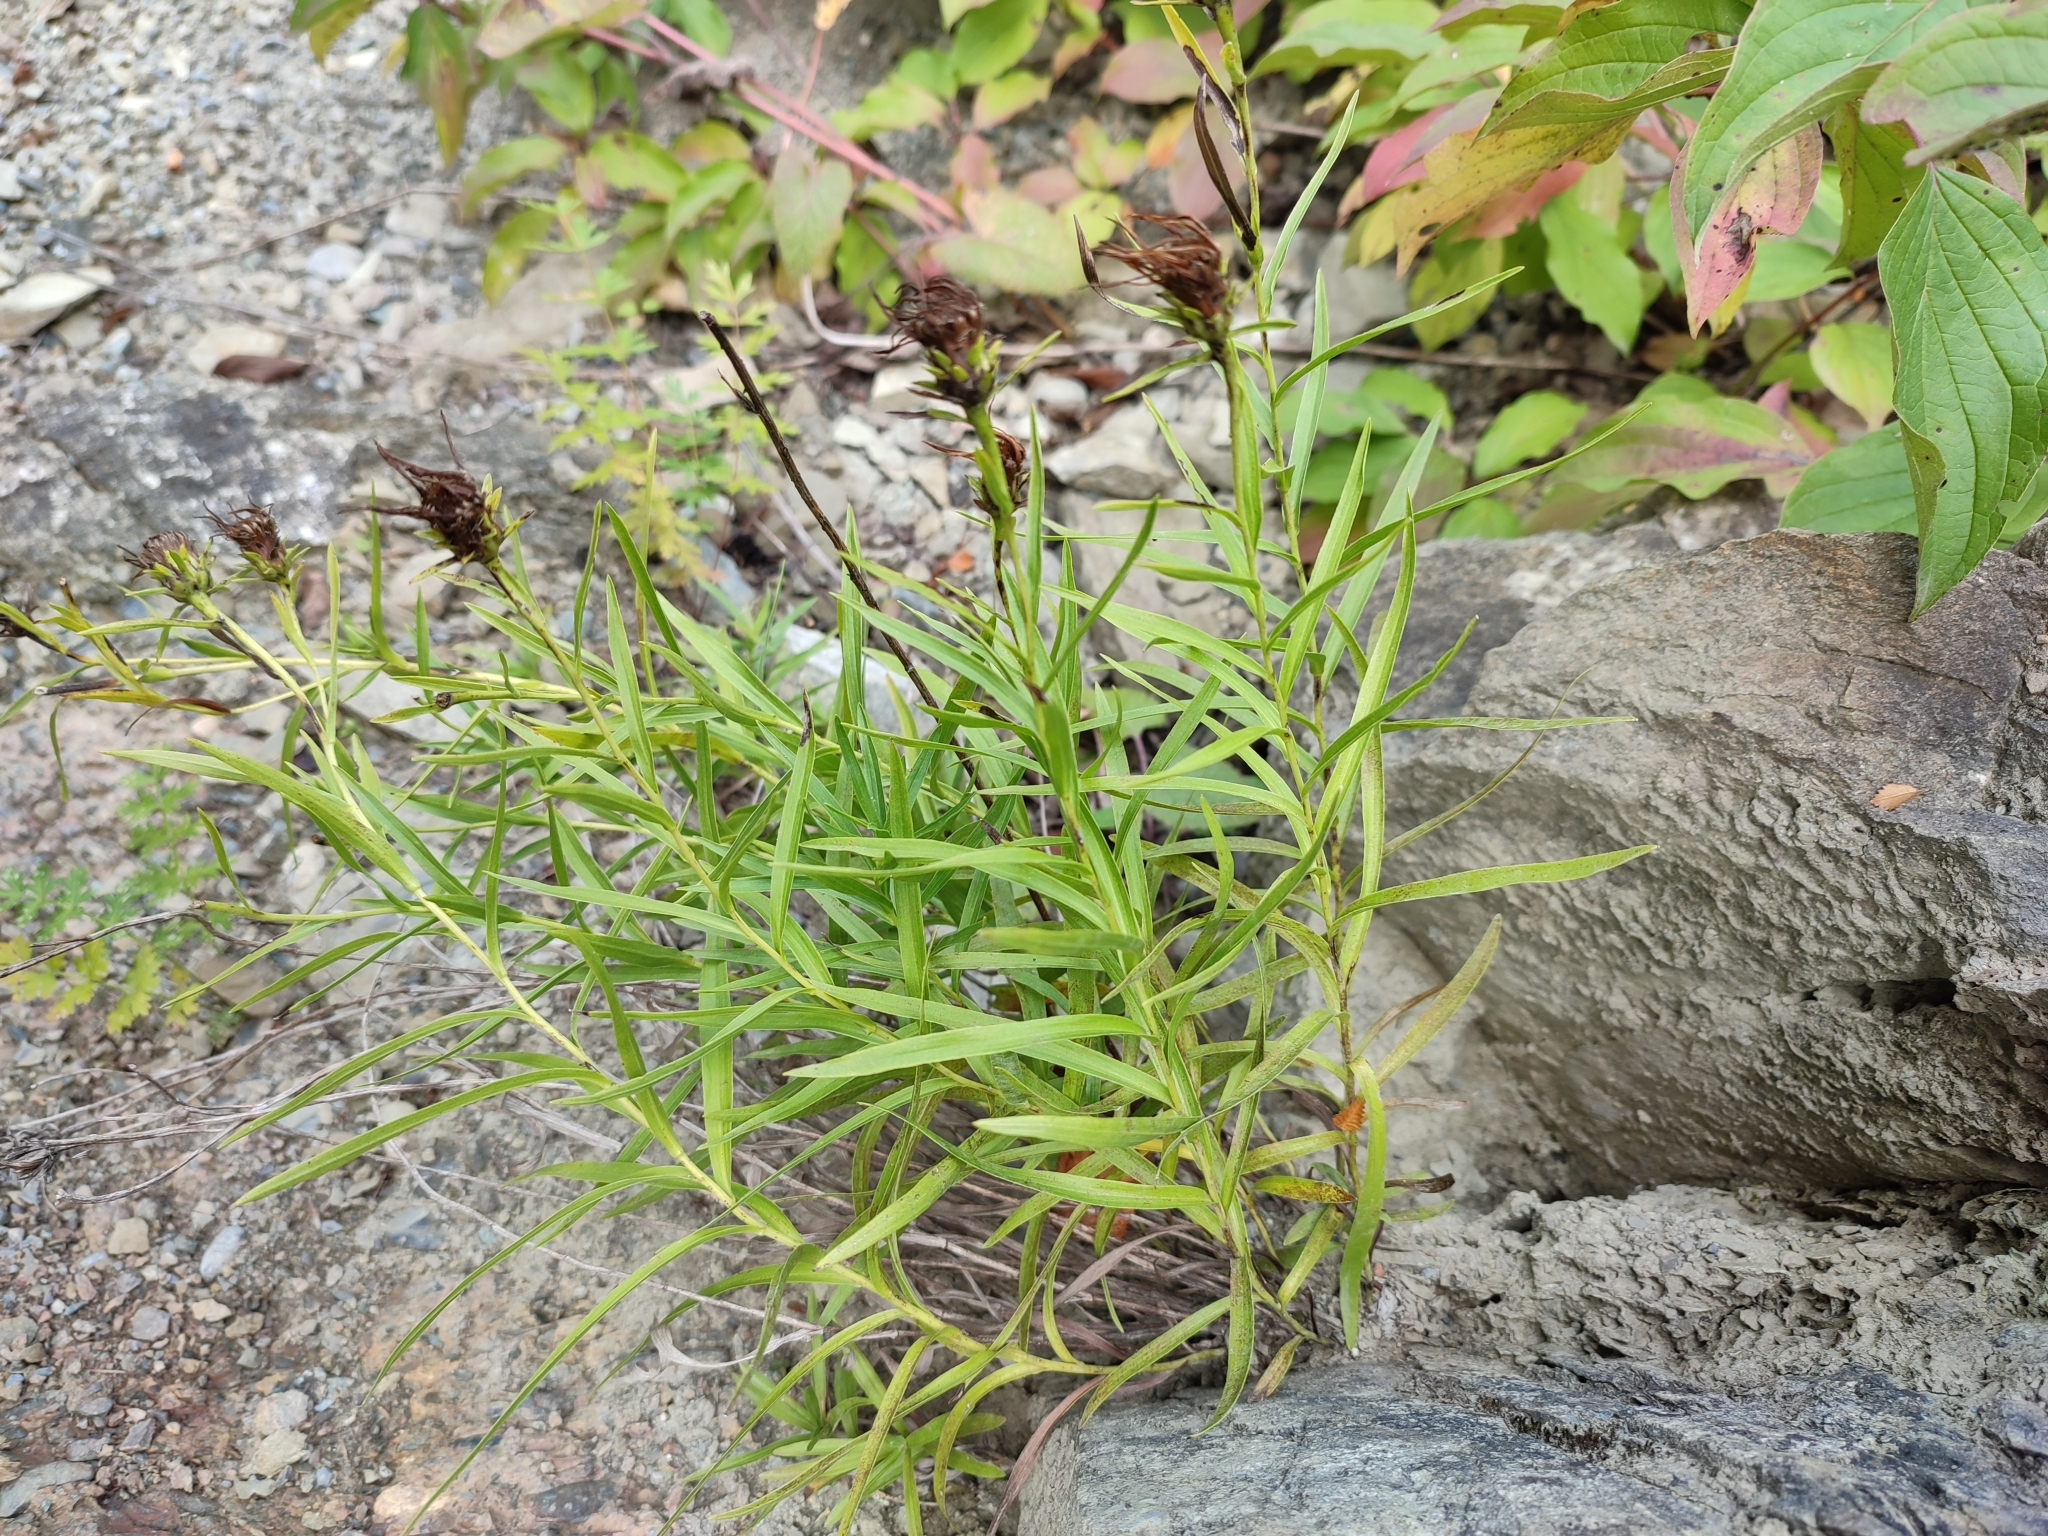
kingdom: Plantae
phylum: Tracheophyta
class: Magnoliopsida
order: Asterales
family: Asteraceae
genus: Pentanema
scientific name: Pentanema ensifolium
